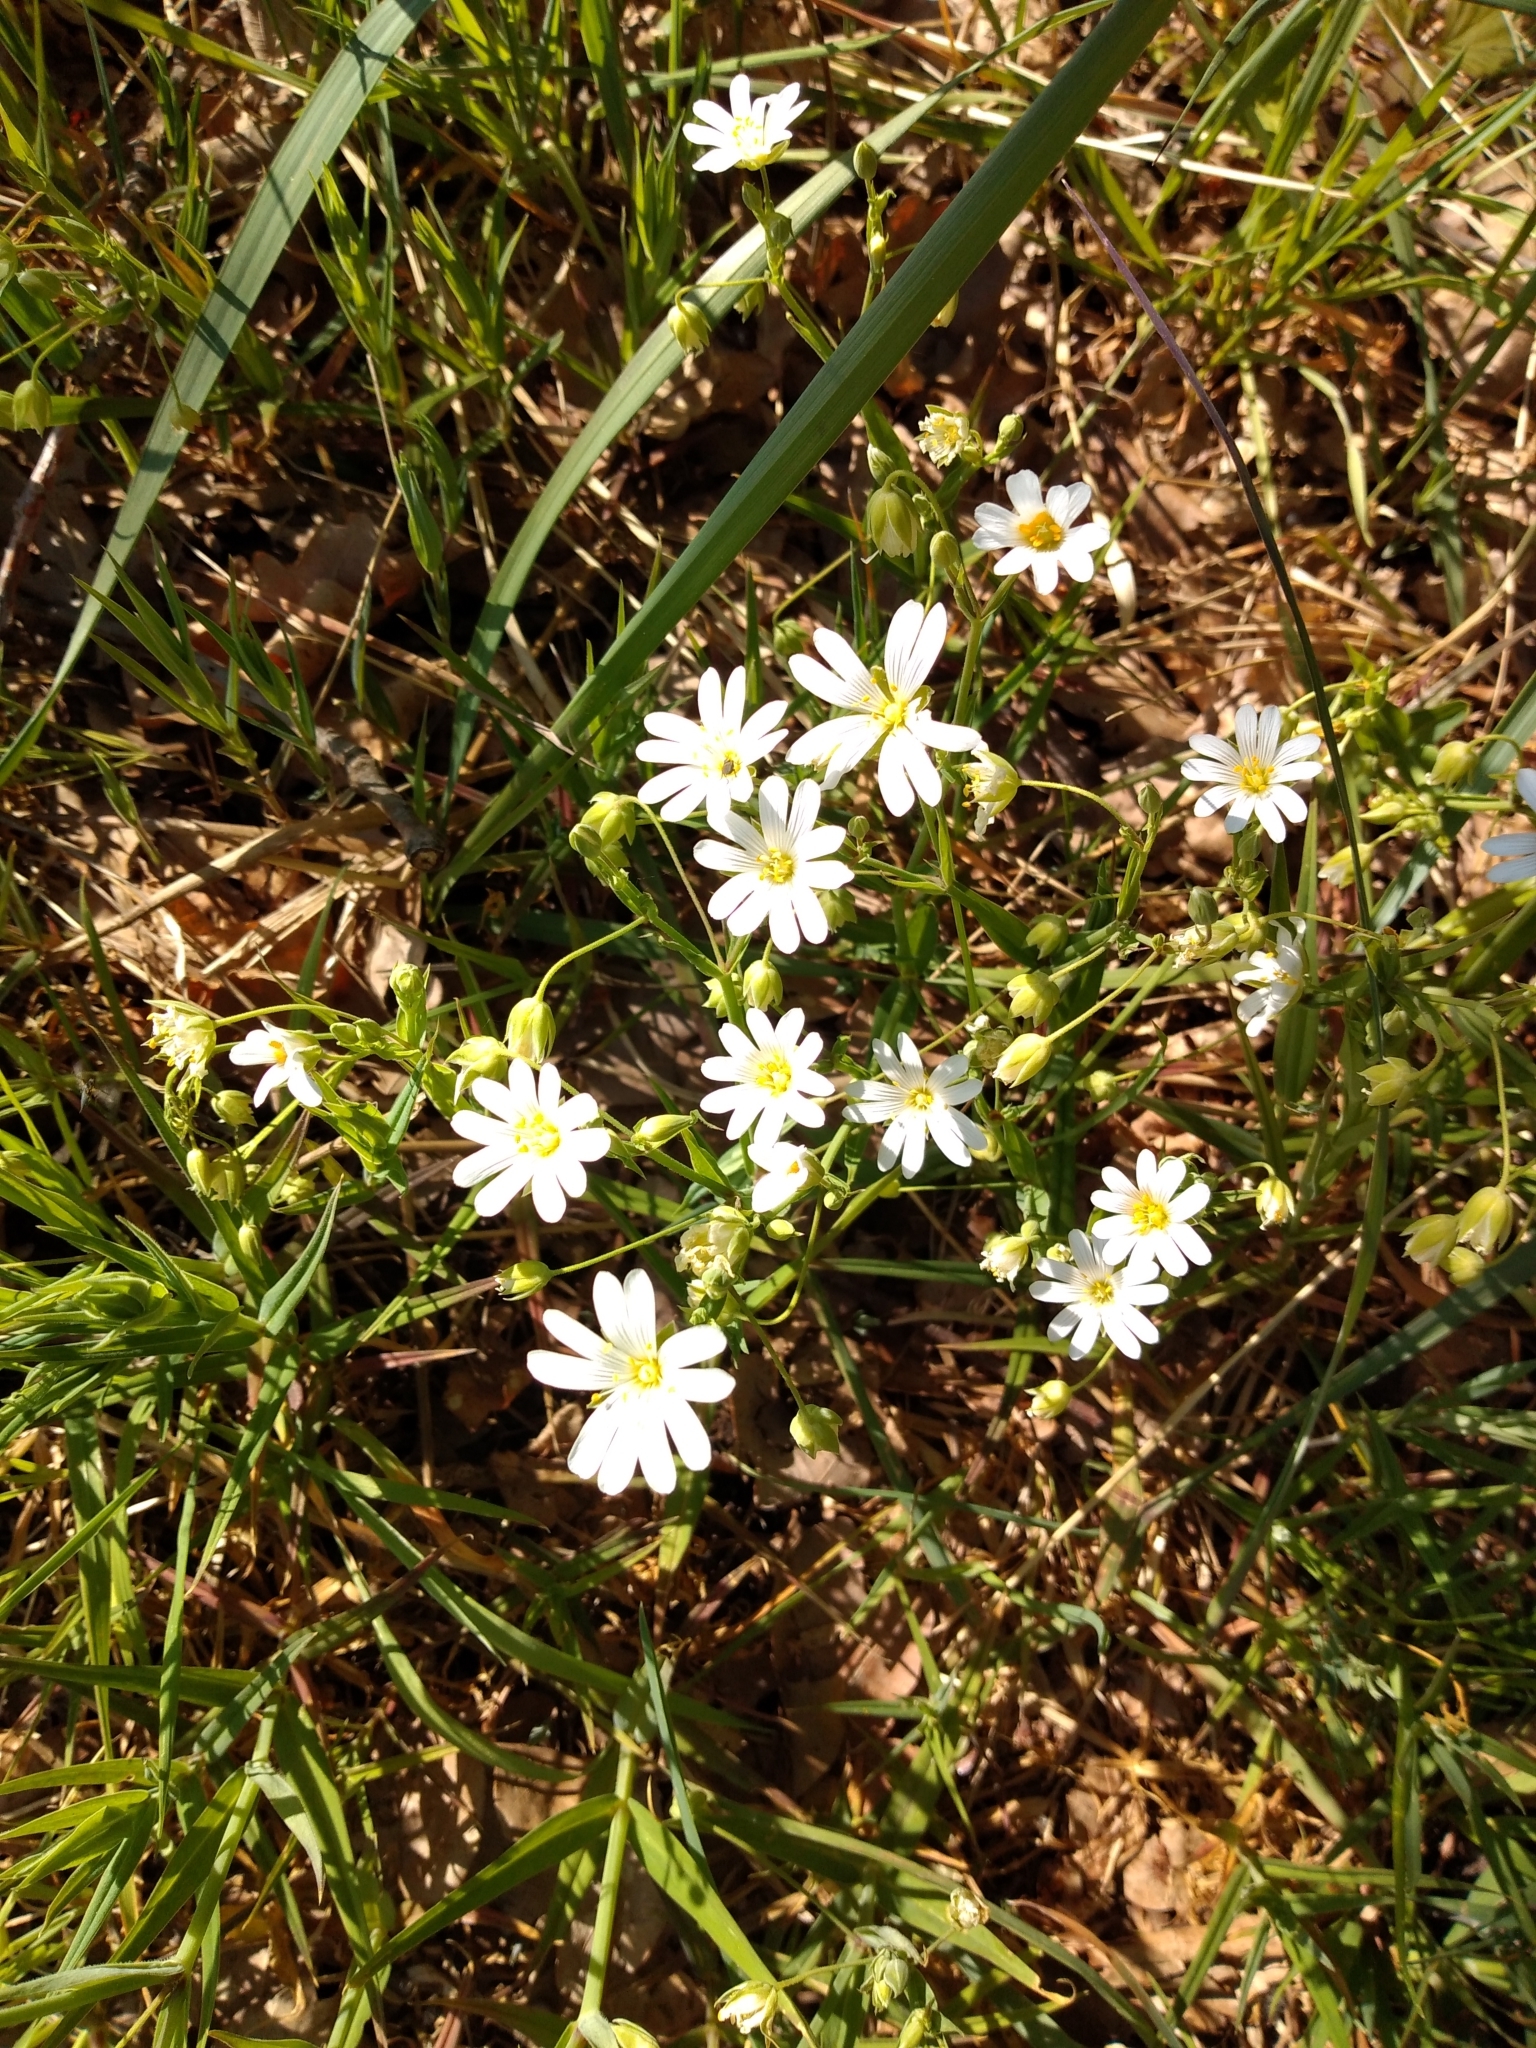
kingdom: Plantae
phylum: Tracheophyta
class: Magnoliopsida
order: Caryophyllales
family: Caryophyllaceae
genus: Rabelera
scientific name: Rabelera holostea
